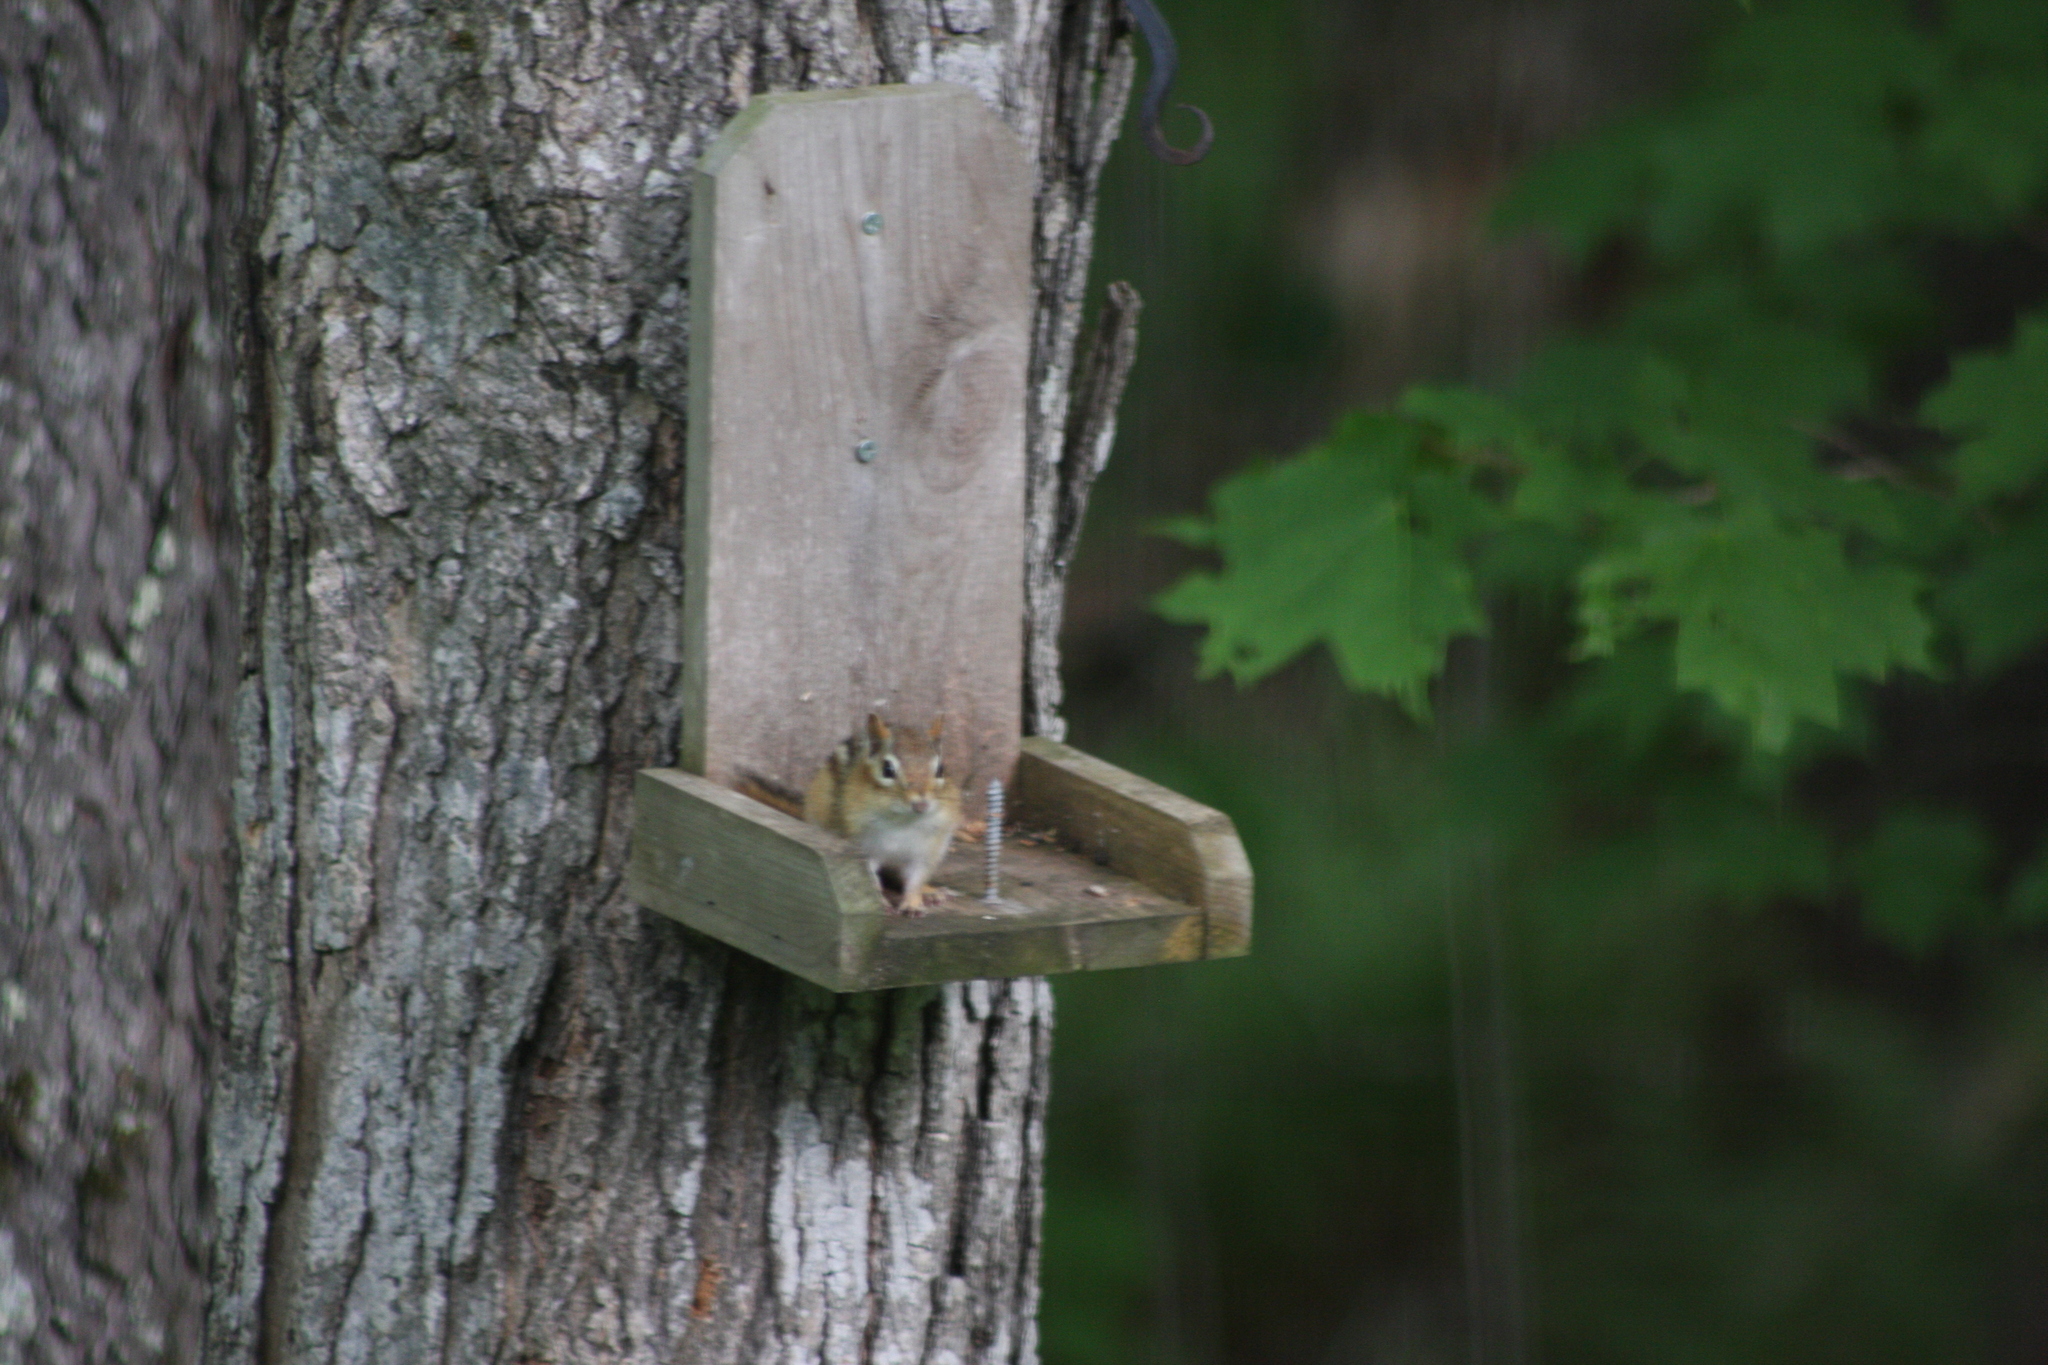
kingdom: Animalia
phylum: Chordata
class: Mammalia
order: Rodentia
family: Sciuridae
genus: Tamias
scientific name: Tamias striatus
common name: Eastern chipmunk
